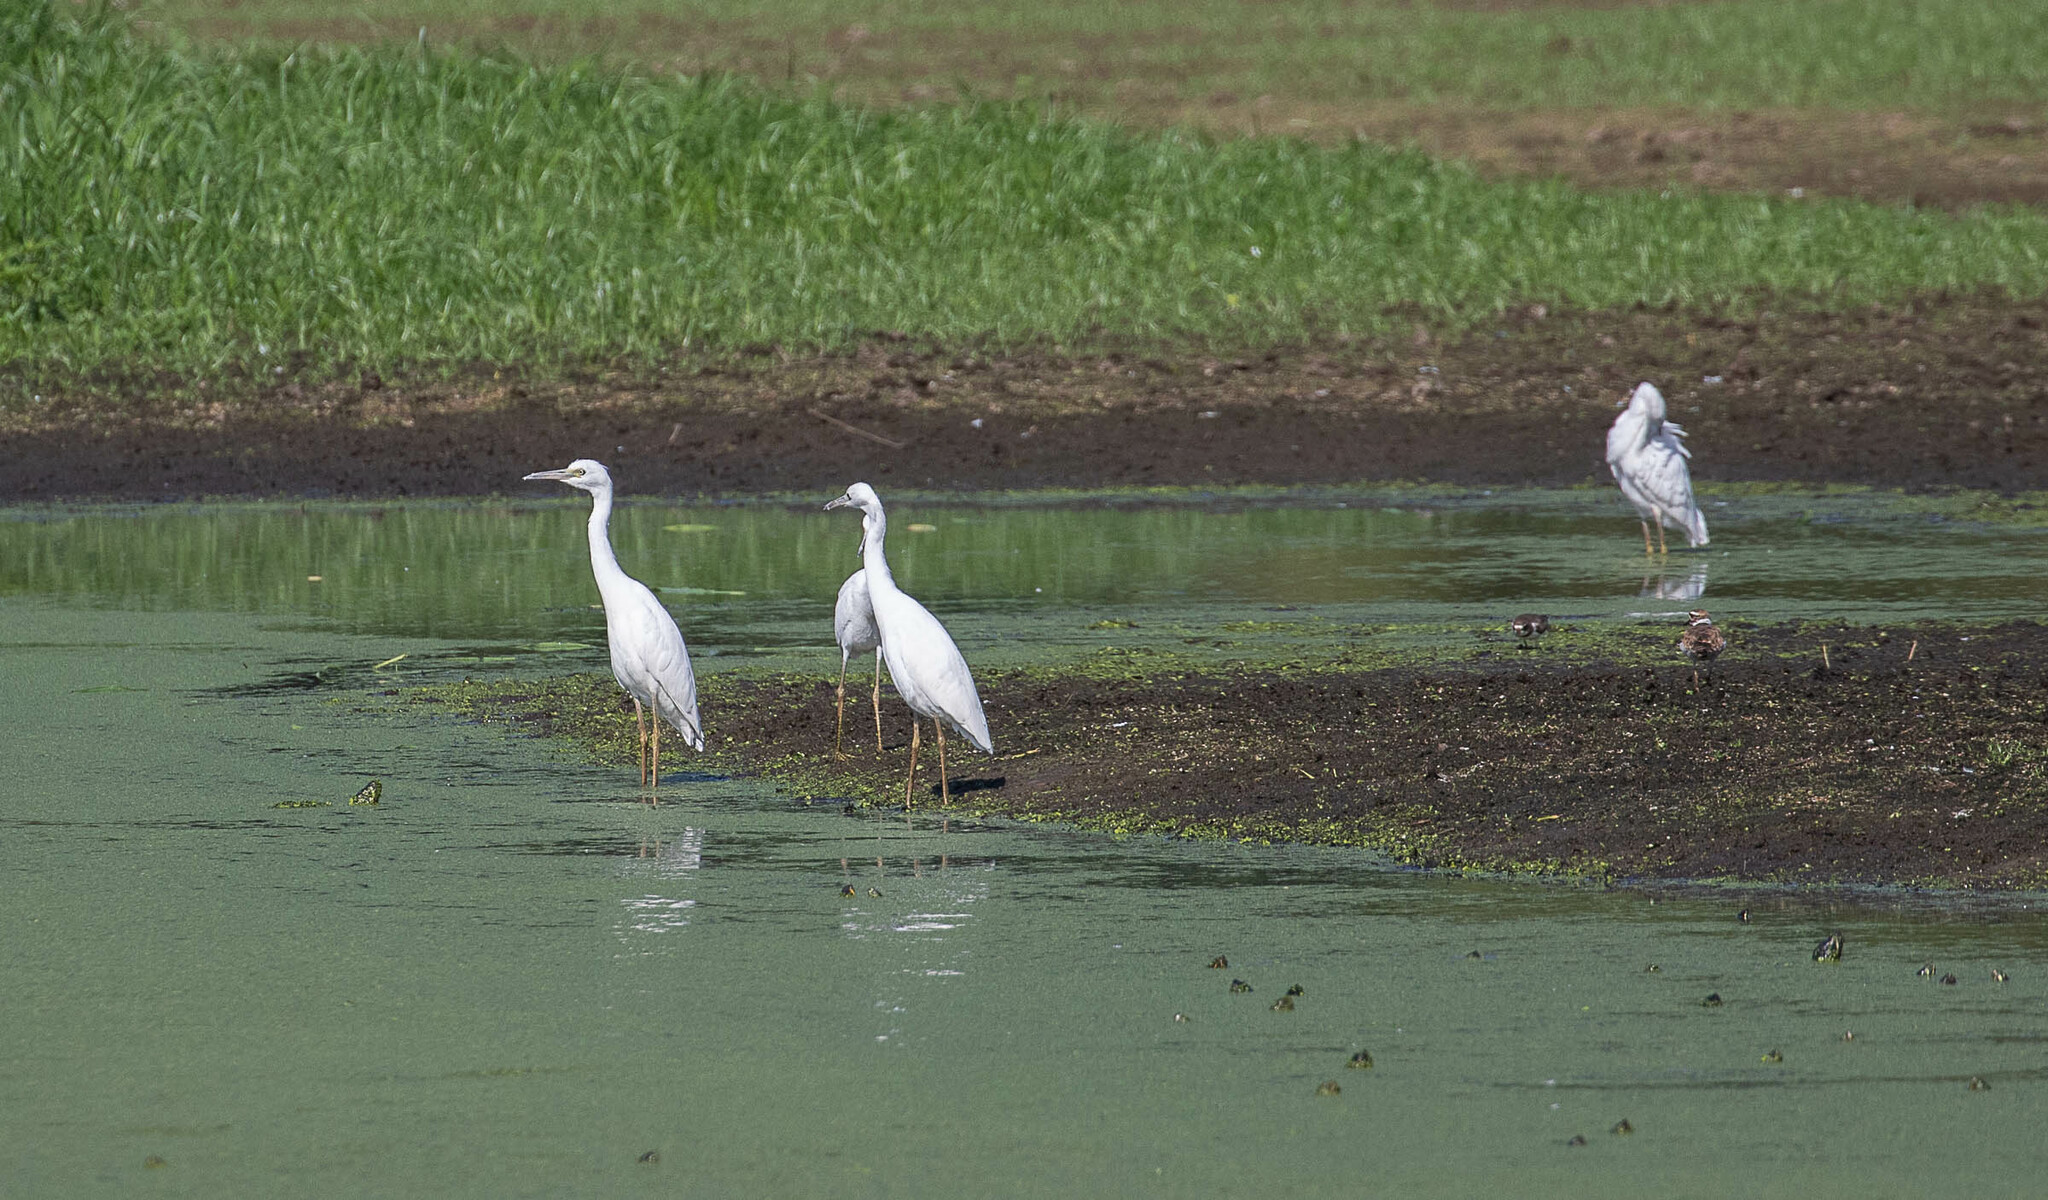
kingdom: Animalia
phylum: Chordata
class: Aves
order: Pelecaniformes
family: Ardeidae
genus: Egretta
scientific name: Egretta caerulea
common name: Little blue heron
